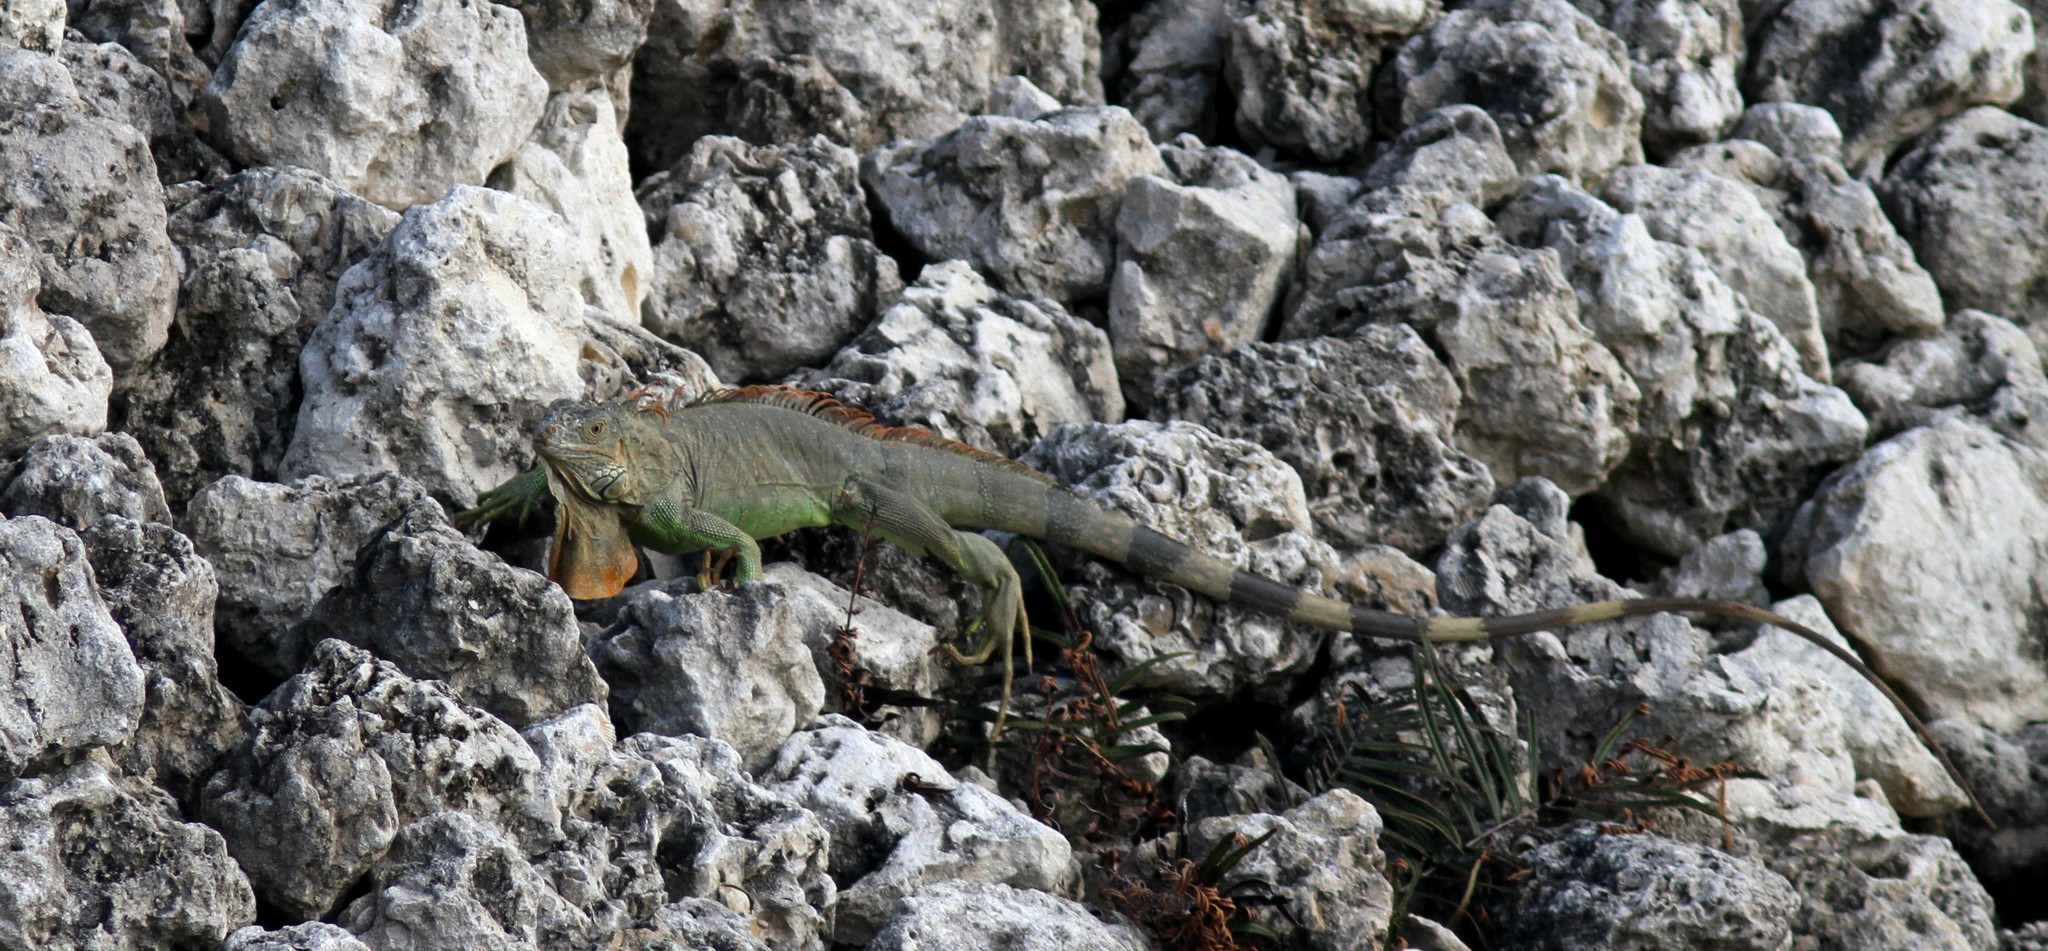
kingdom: Animalia
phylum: Chordata
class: Squamata
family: Iguanidae
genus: Iguana
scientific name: Iguana iguana
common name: Green iguana
